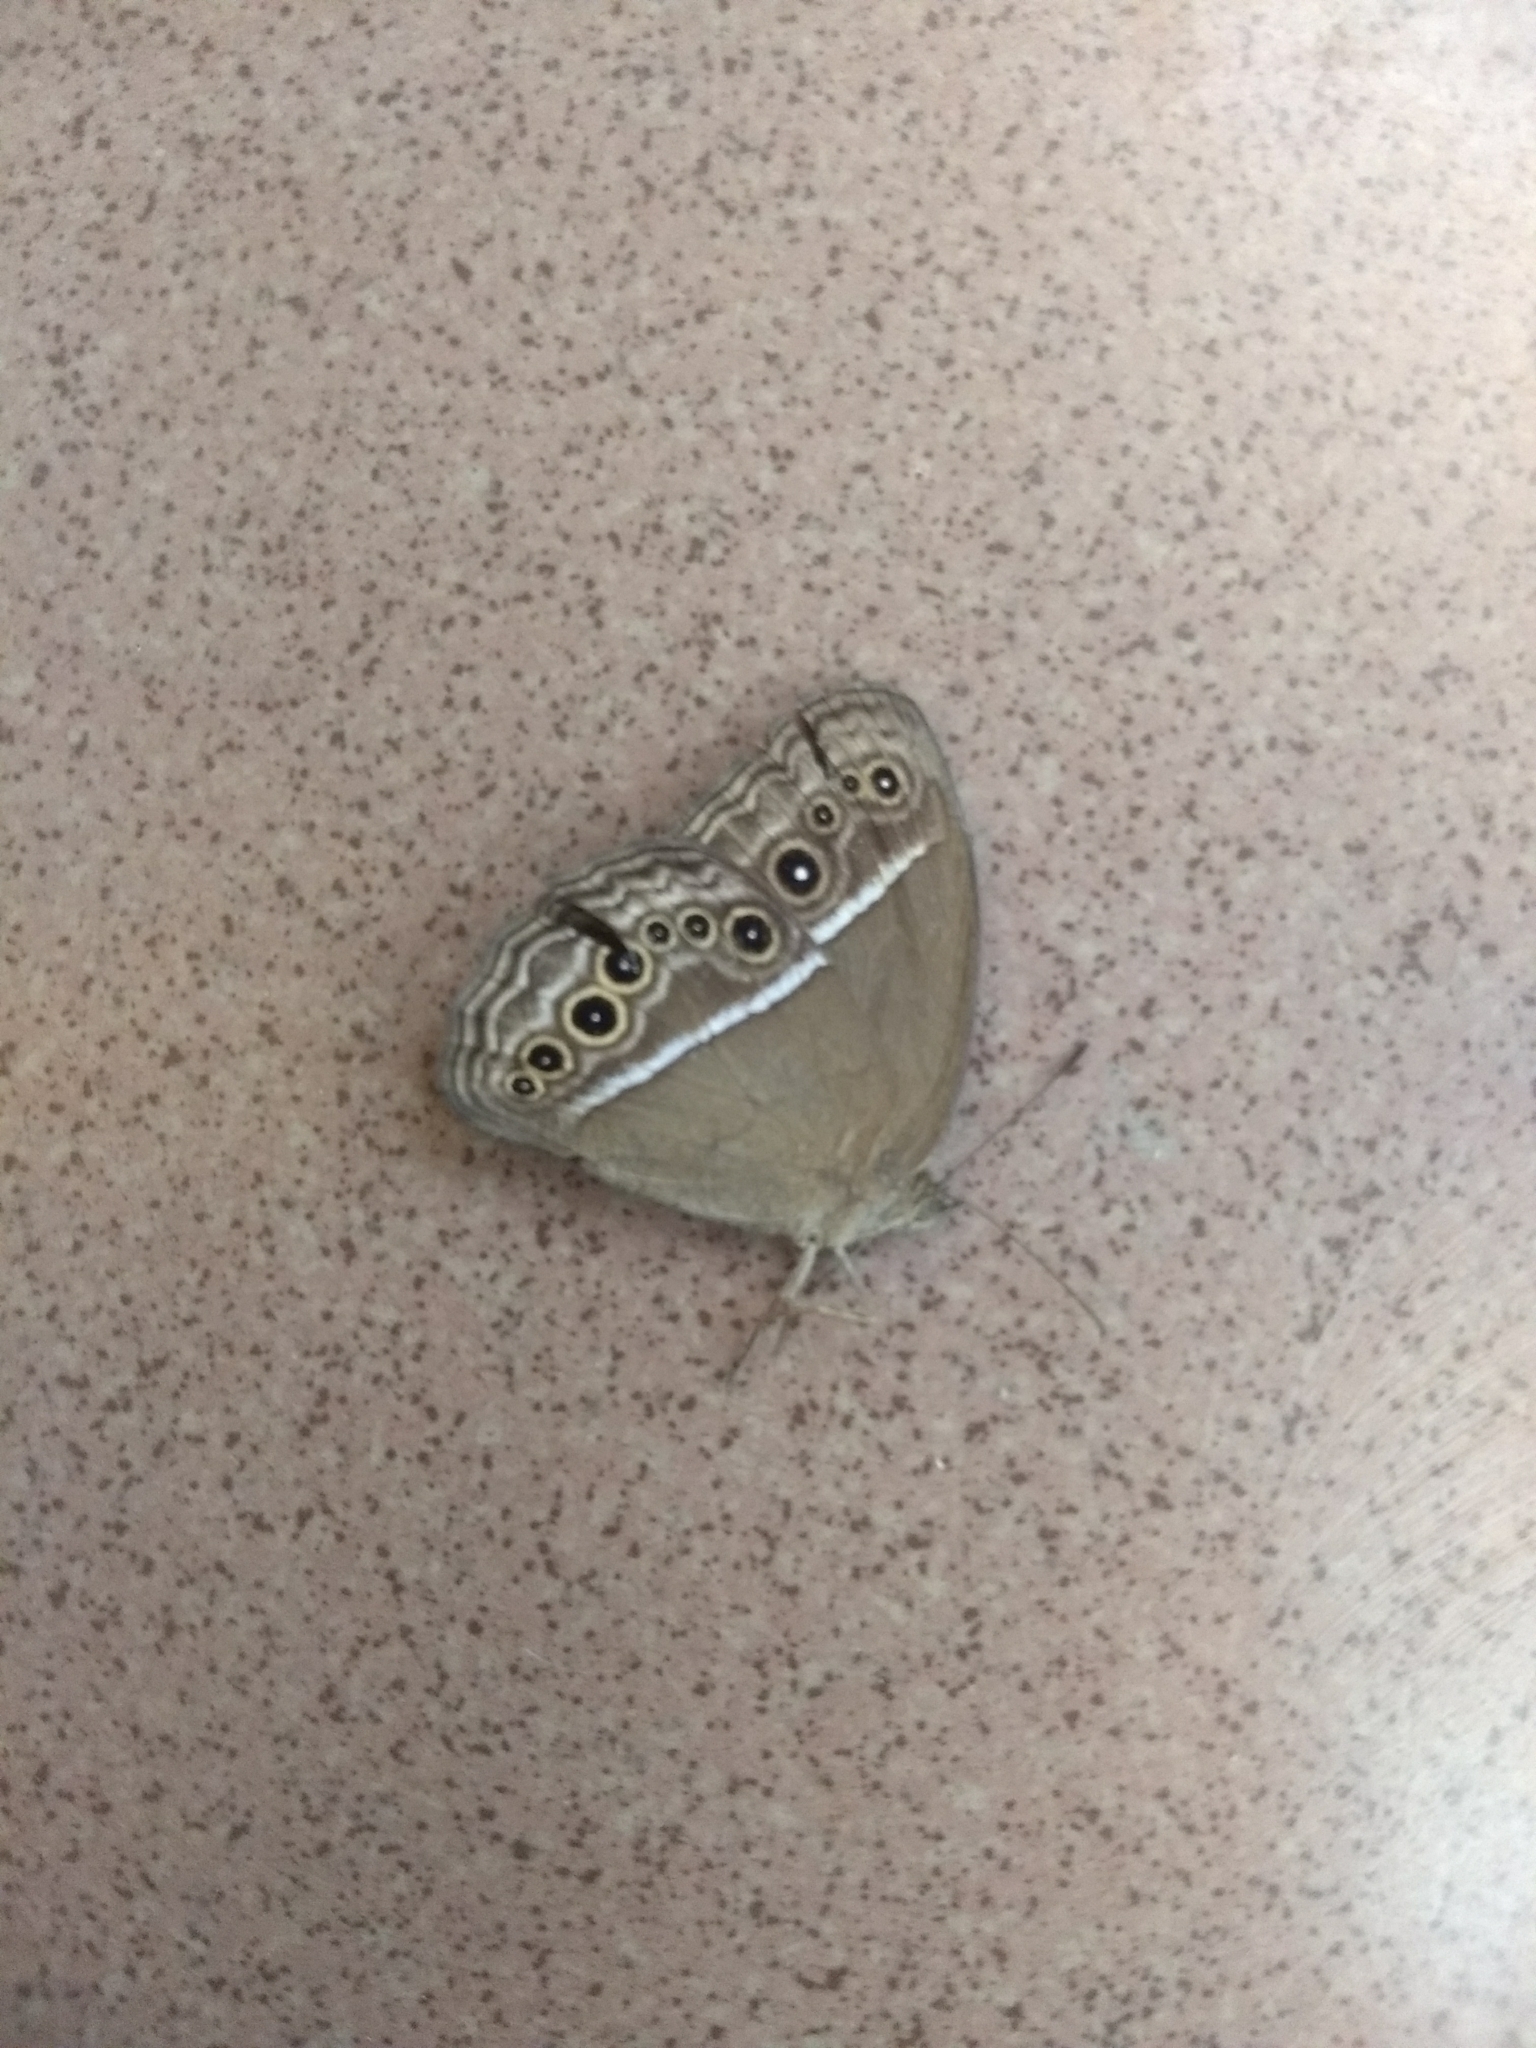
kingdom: Animalia
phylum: Arthropoda
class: Insecta
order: Lepidoptera
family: Nymphalidae
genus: Mycalesis
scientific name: Mycalesis perseus
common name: Dingy bushbrown
